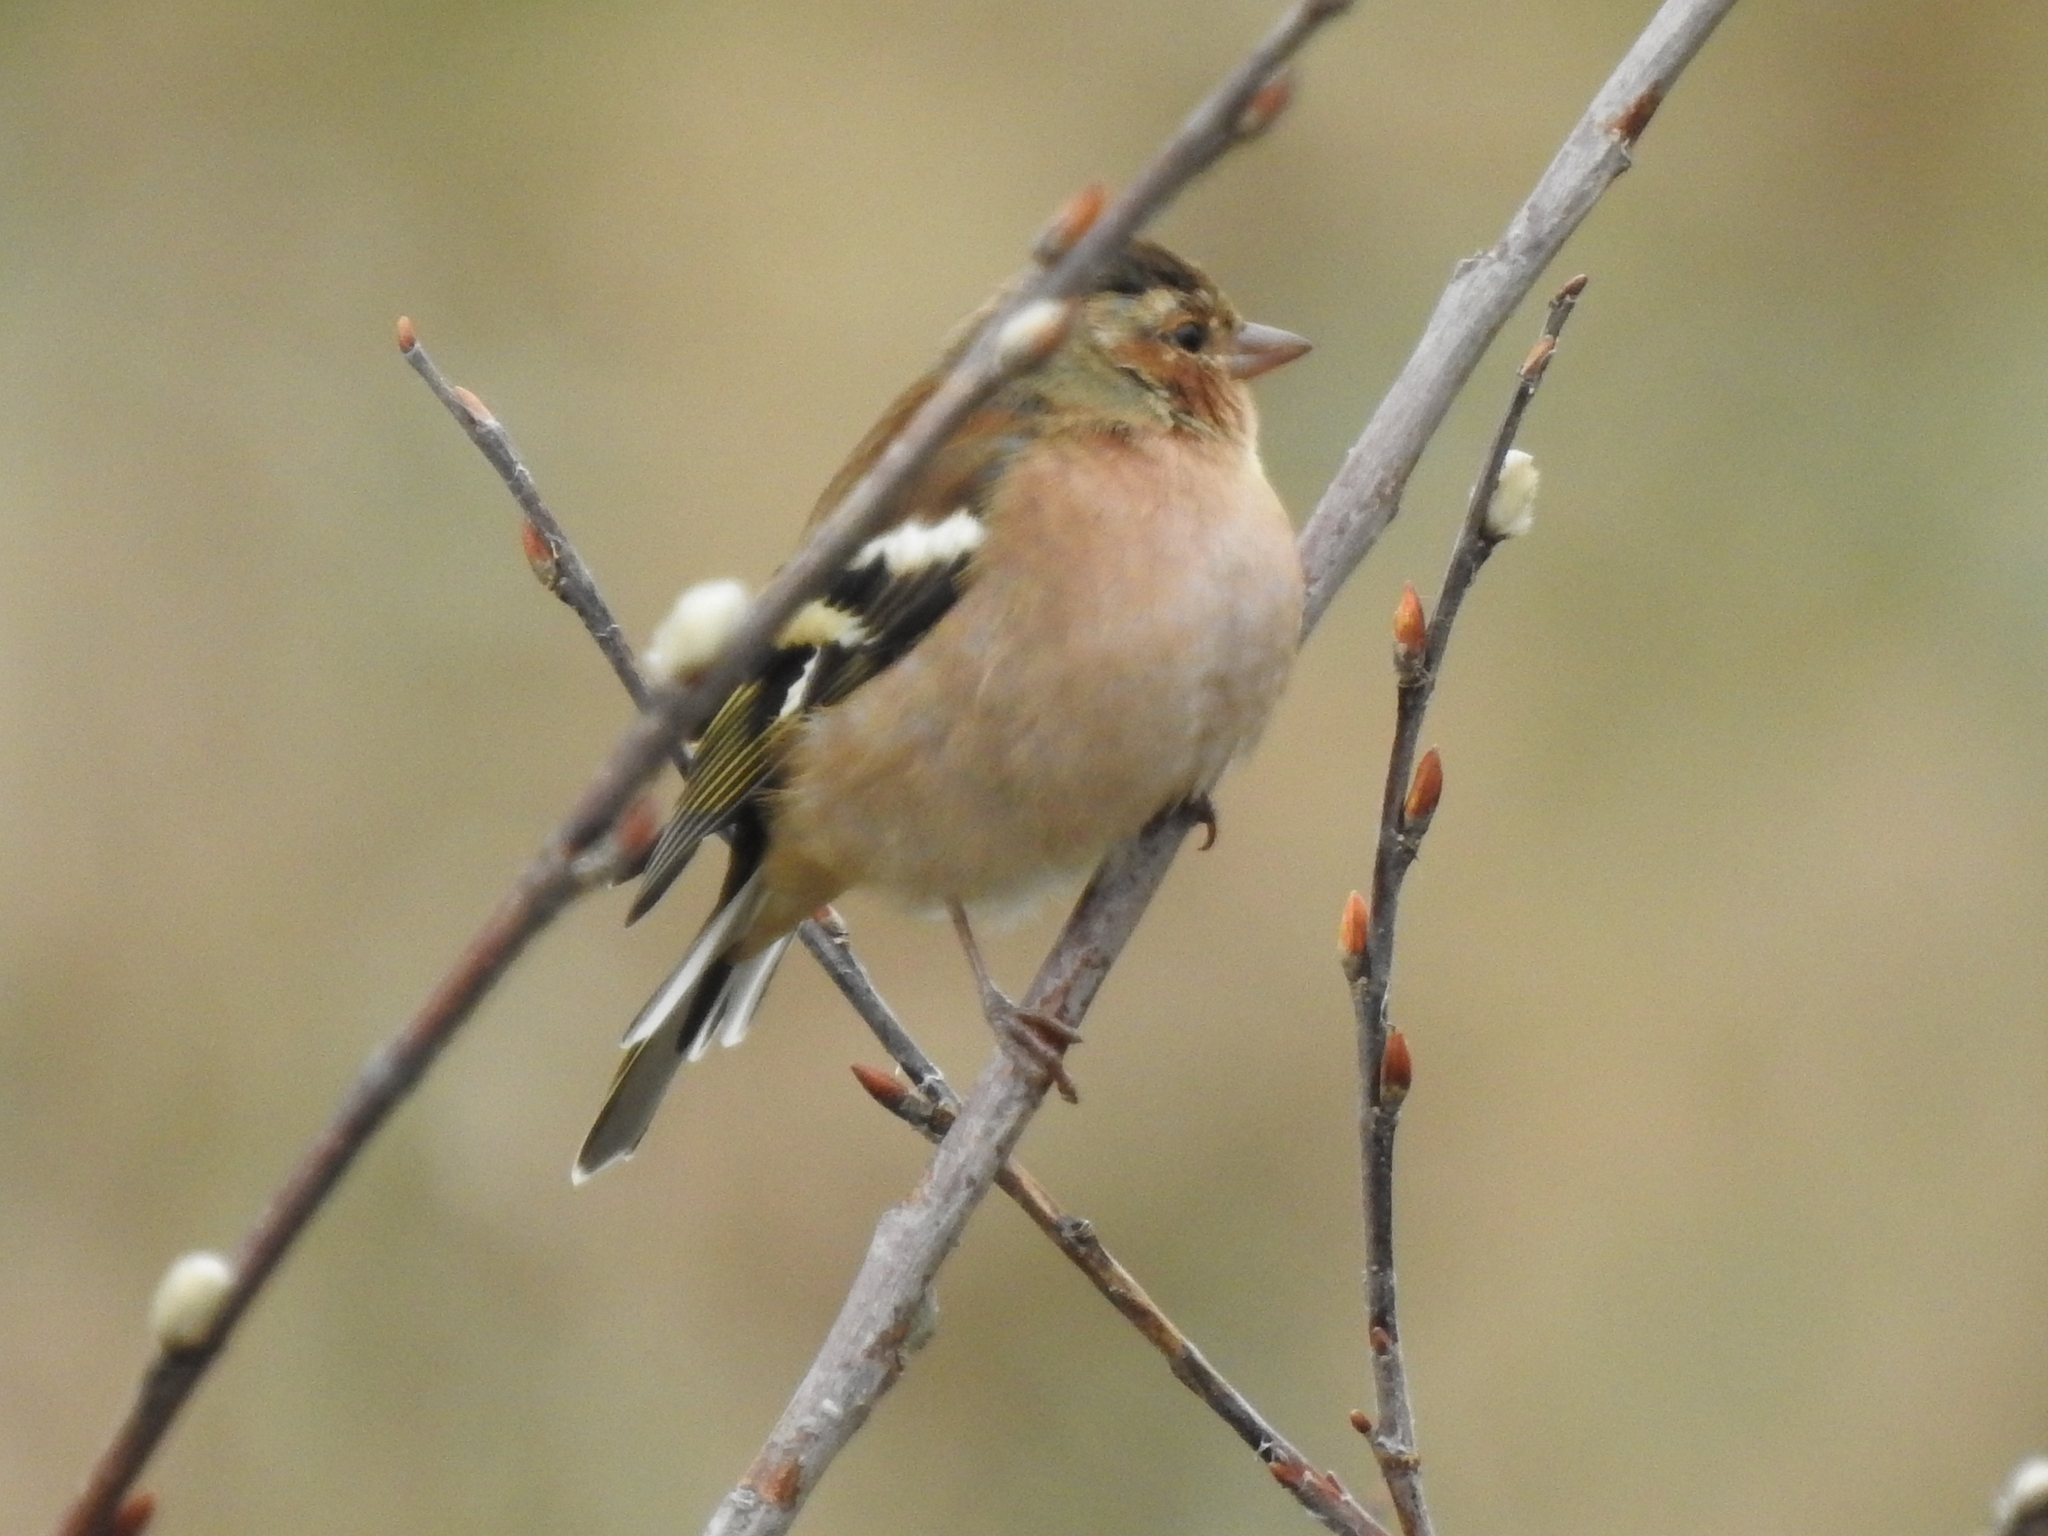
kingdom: Animalia
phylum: Chordata
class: Aves
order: Passeriformes
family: Fringillidae
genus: Fringilla
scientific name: Fringilla coelebs
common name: Common chaffinch
